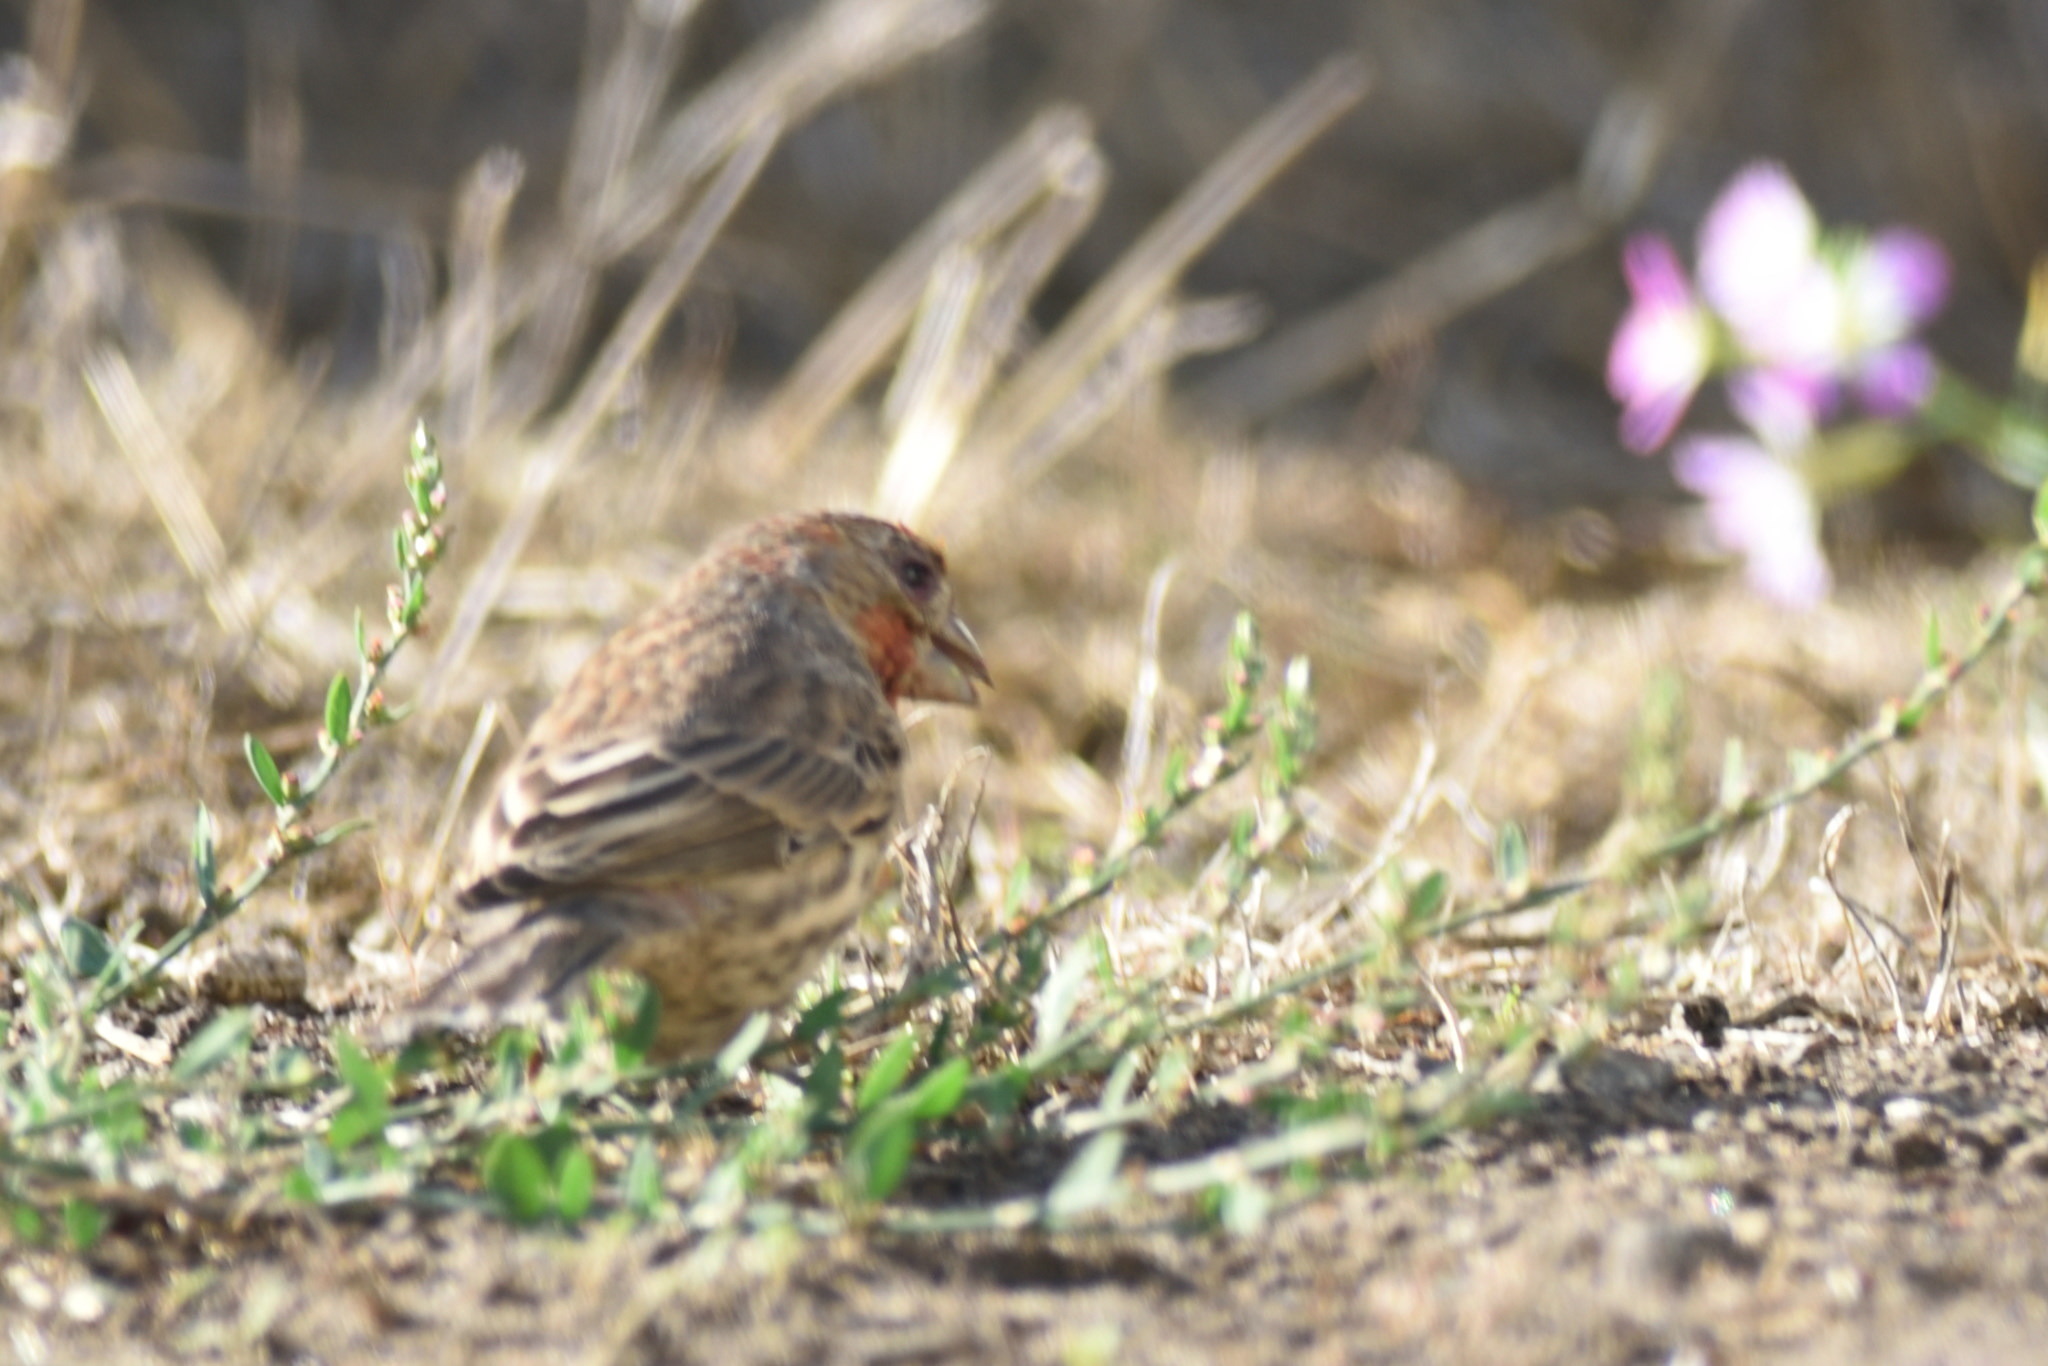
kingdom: Animalia
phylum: Chordata
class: Aves
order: Passeriformes
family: Fringillidae
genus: Haemorhous
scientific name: Haemorhous mexicanus
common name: House finch
